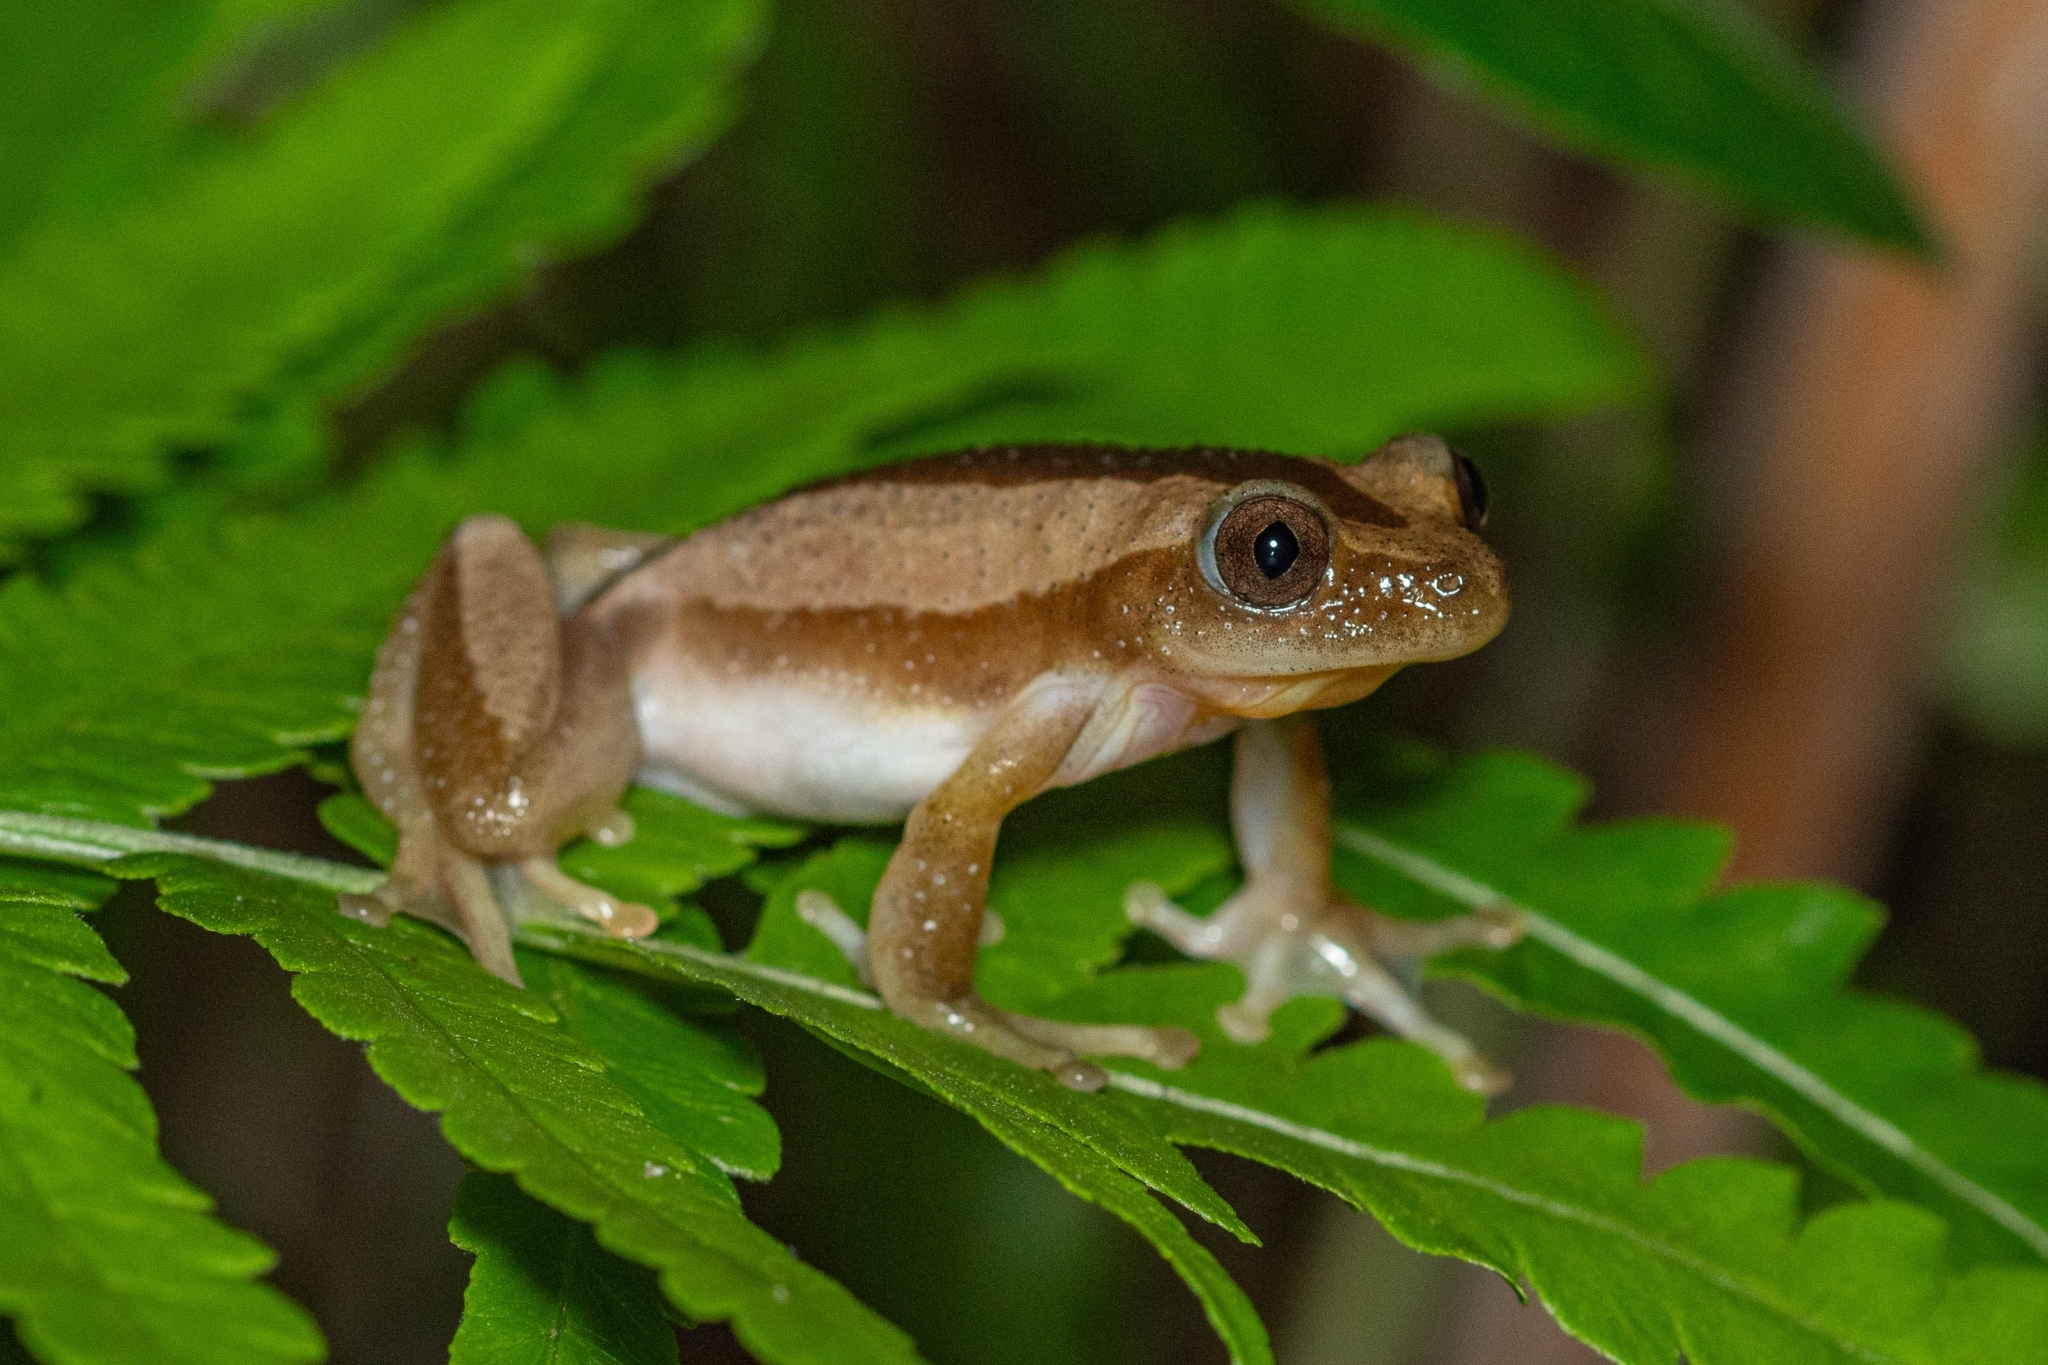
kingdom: Animalia
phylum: Chordata
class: Amphibia
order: Anura
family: Hyperoliidae
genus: Afrixalus
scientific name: Afrixalus fornasini
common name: Fornasini's spiny reed frog
